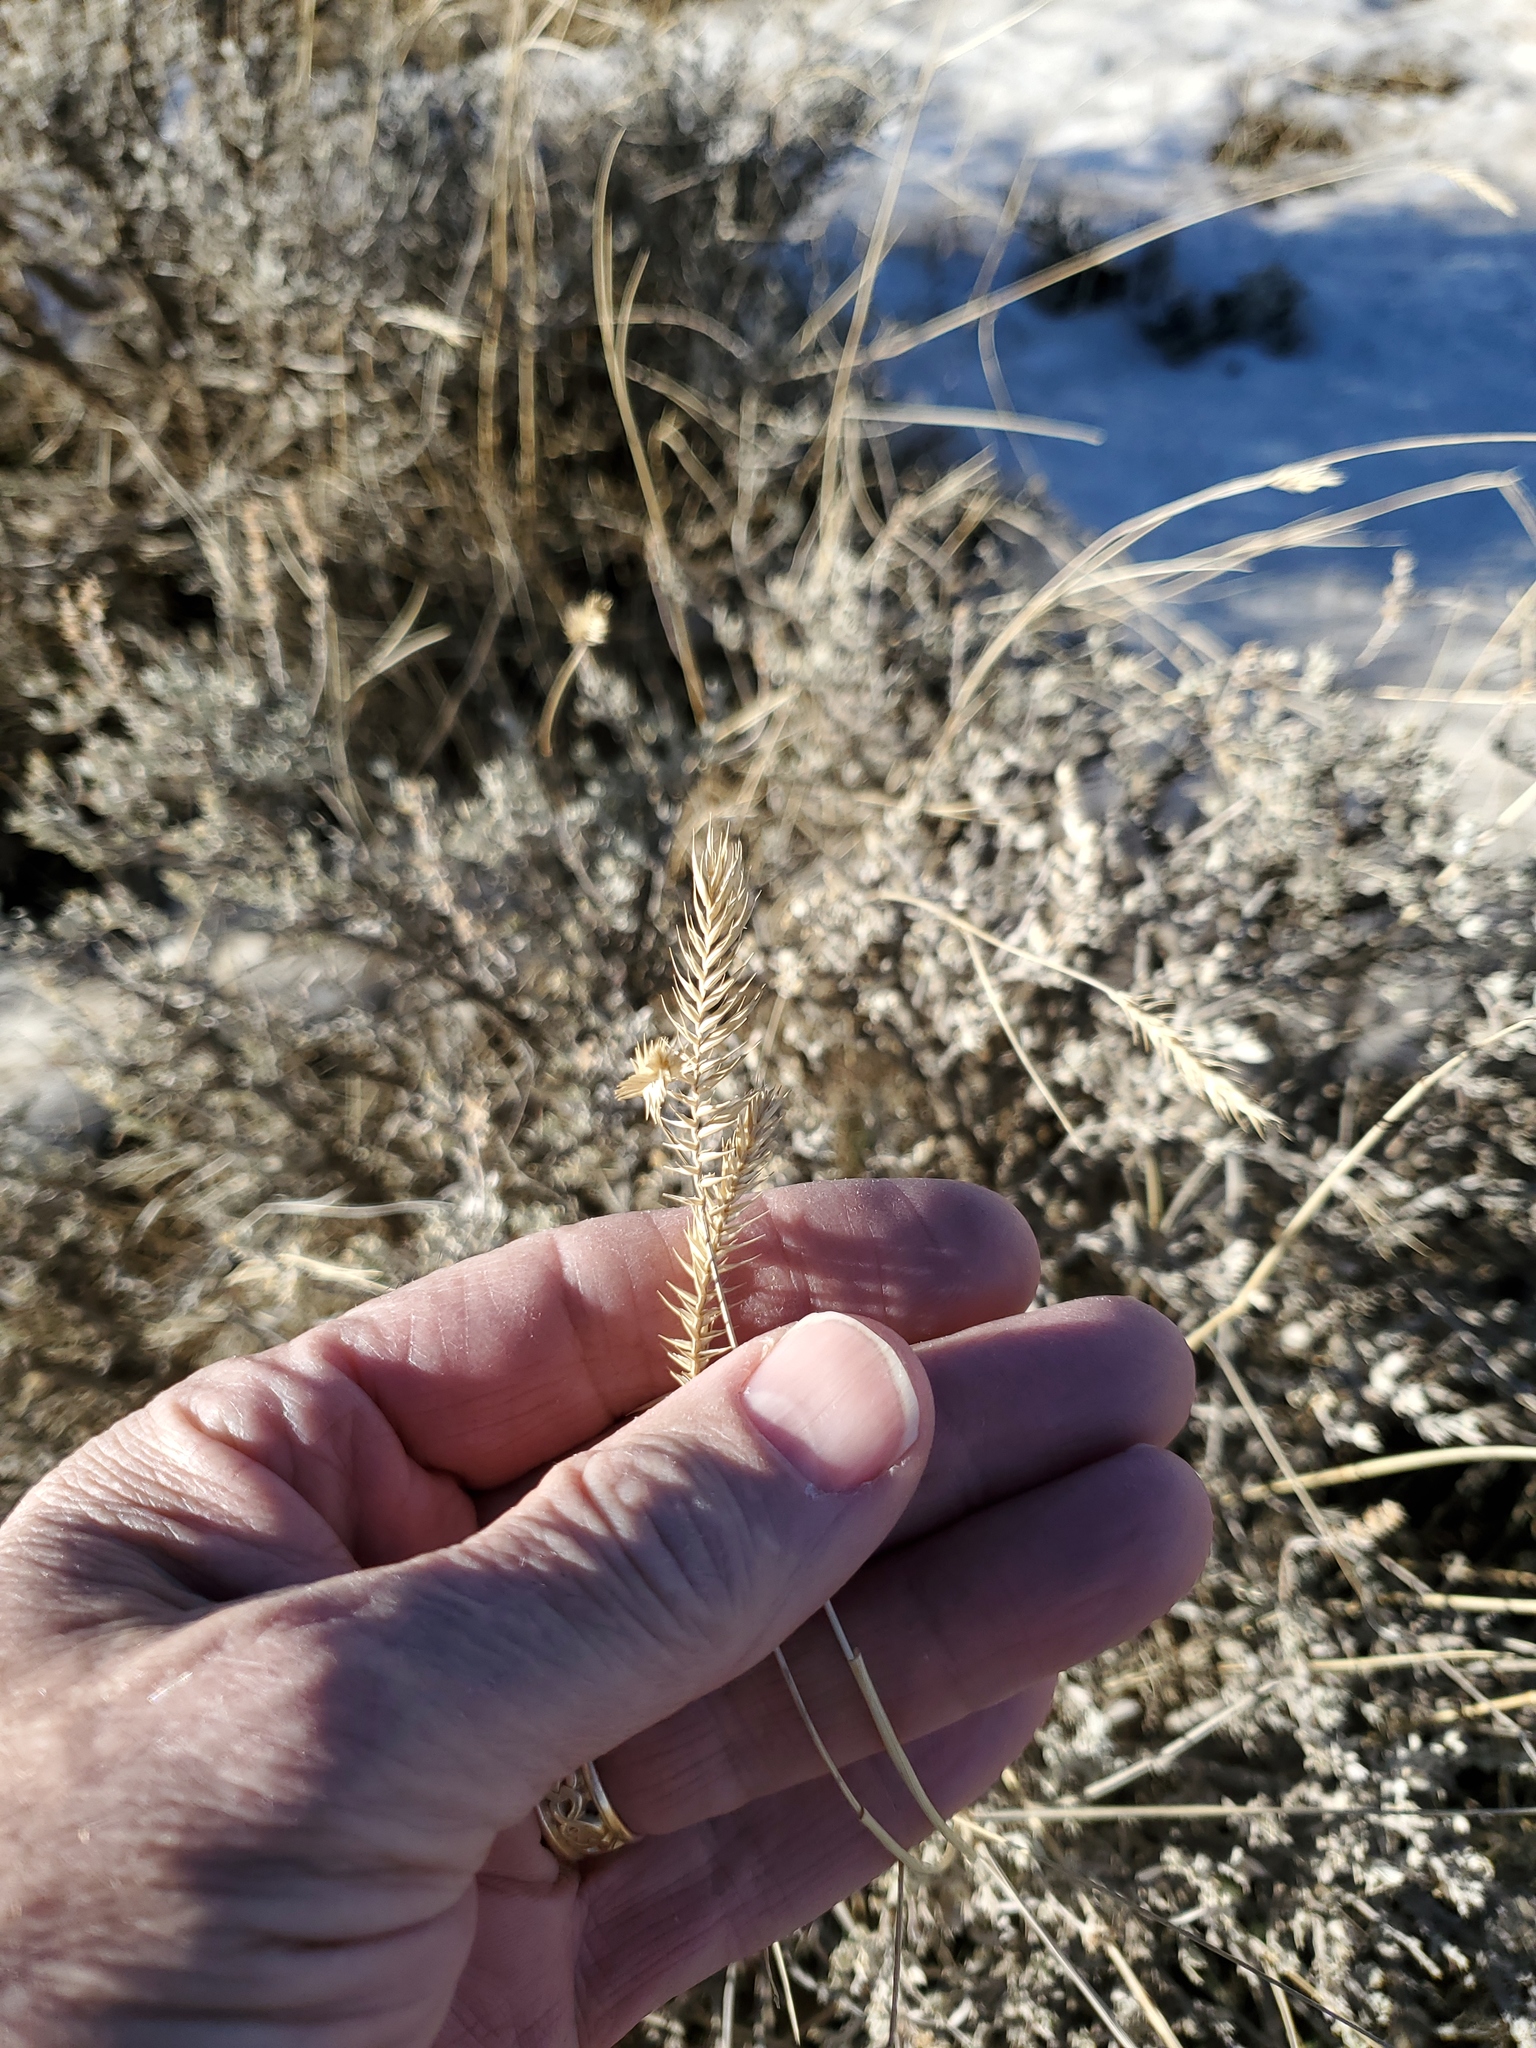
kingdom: Plantae
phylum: Tracheophyta
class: Liliopsida
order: Poales
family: Poaceae
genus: Agropyron
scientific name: Agropyron cristatum
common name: Crested wheatgrass
